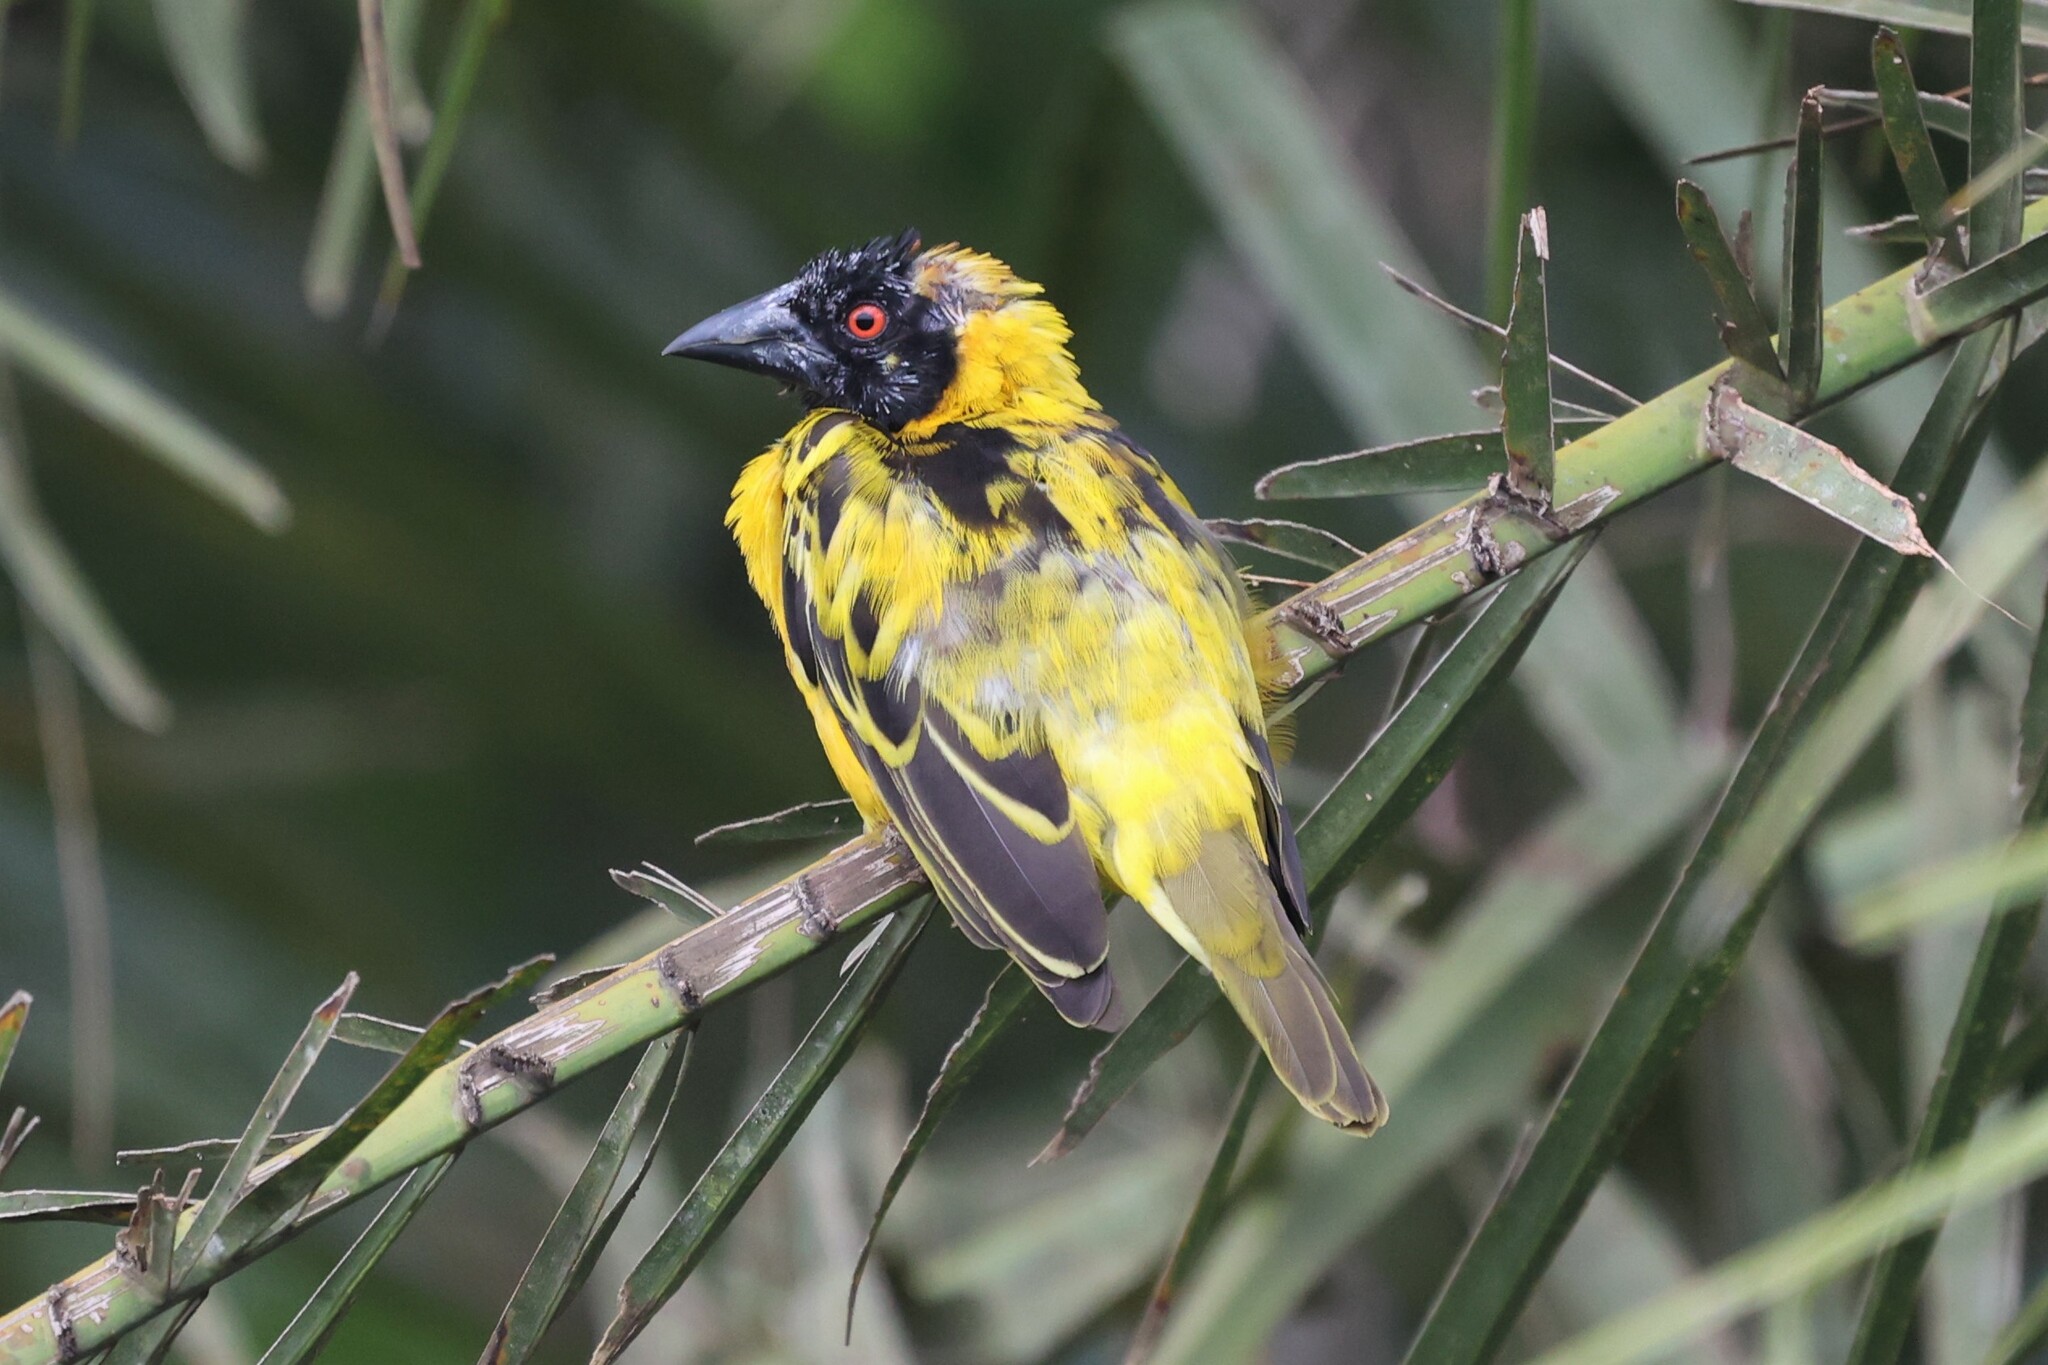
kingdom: Animalia
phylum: Chordata
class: Aves
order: Passeriformes
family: Ploceidae
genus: Ploceus
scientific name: Ploceus cucullatus
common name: Village weaver
